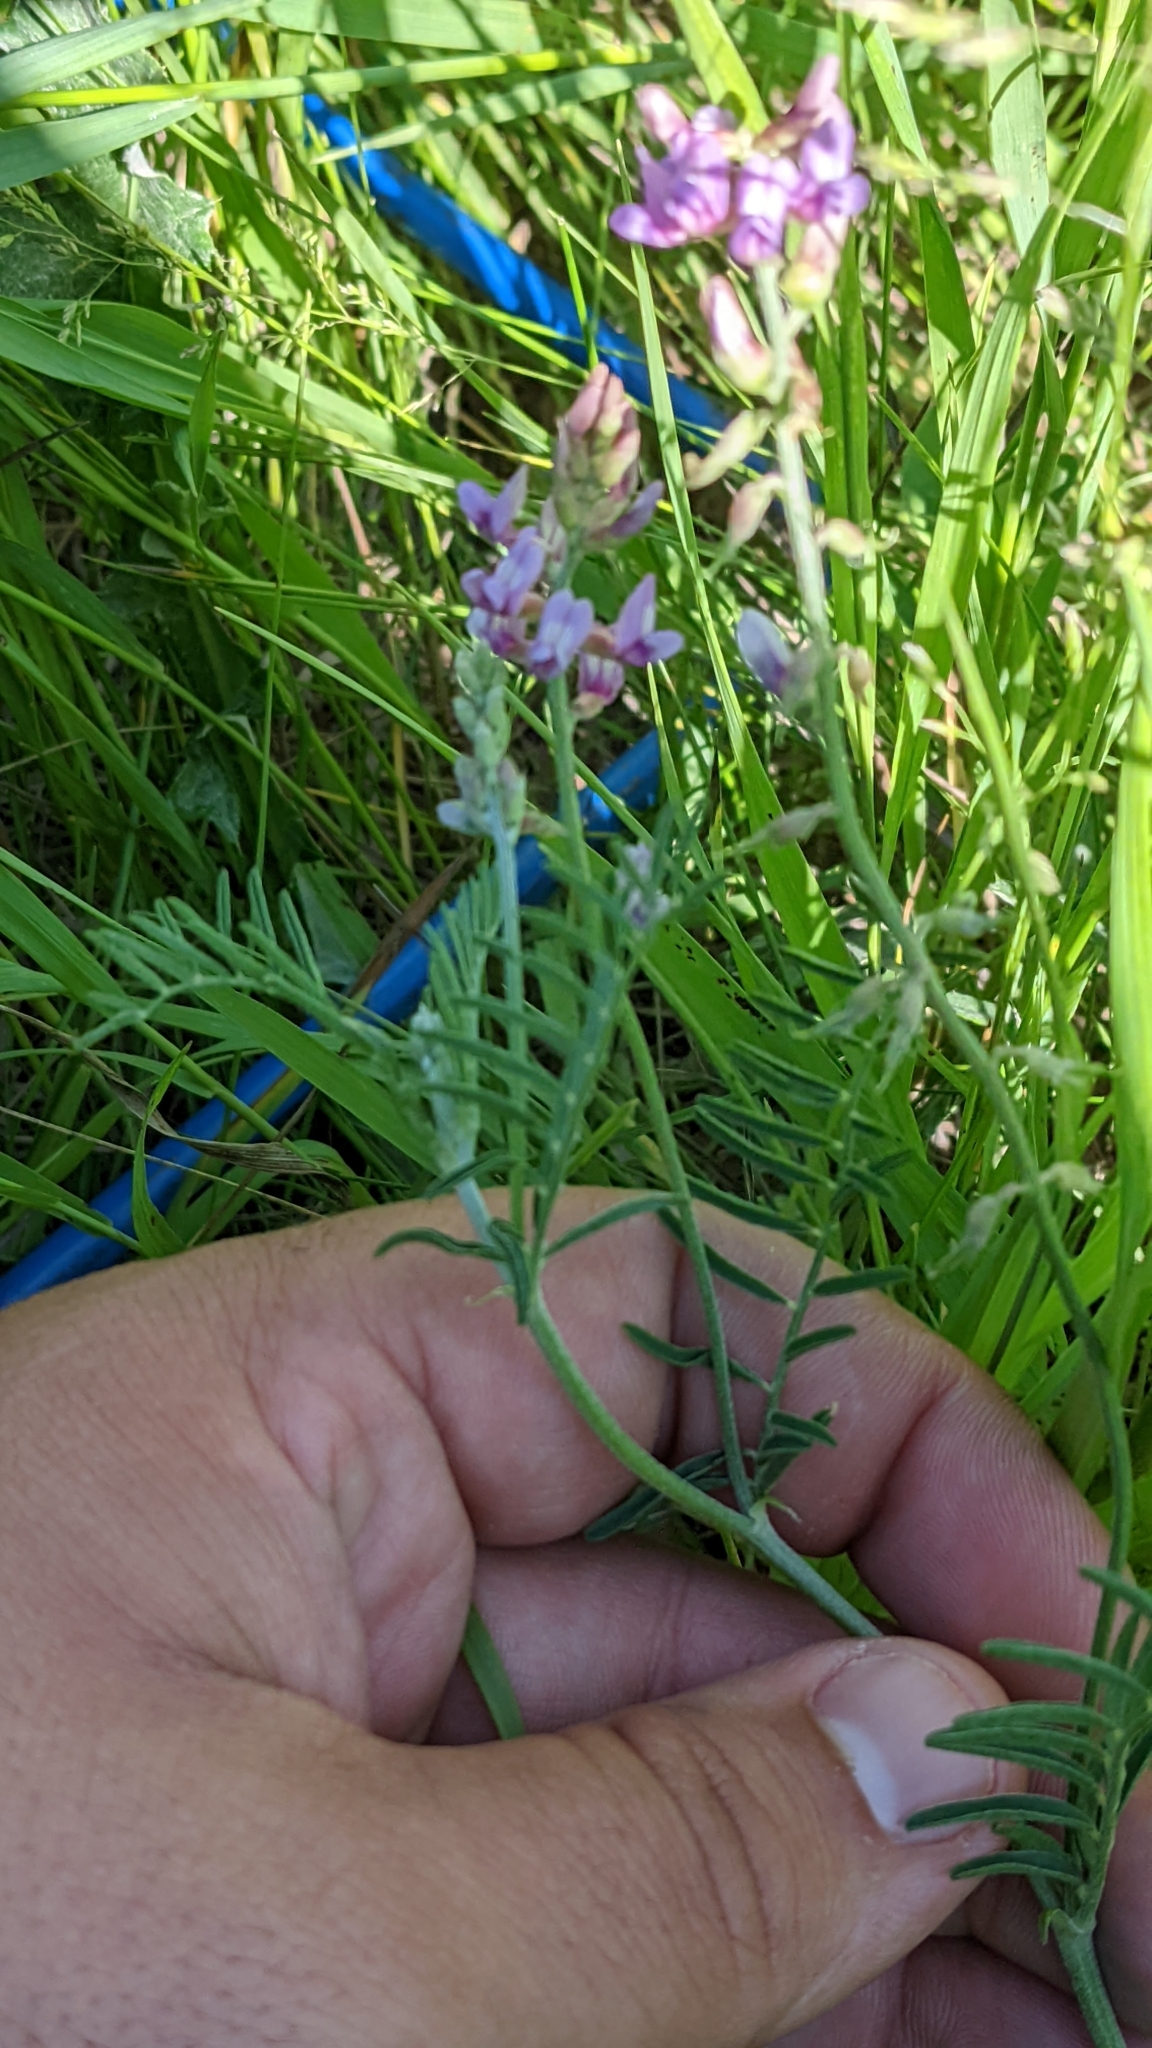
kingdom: Plantae
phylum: Tracheophyta
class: Magnoliopsida
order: Fabales
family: Fabaceae
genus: Astragalus
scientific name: Astragalus flexuosus
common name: Pliant milk-vetch
